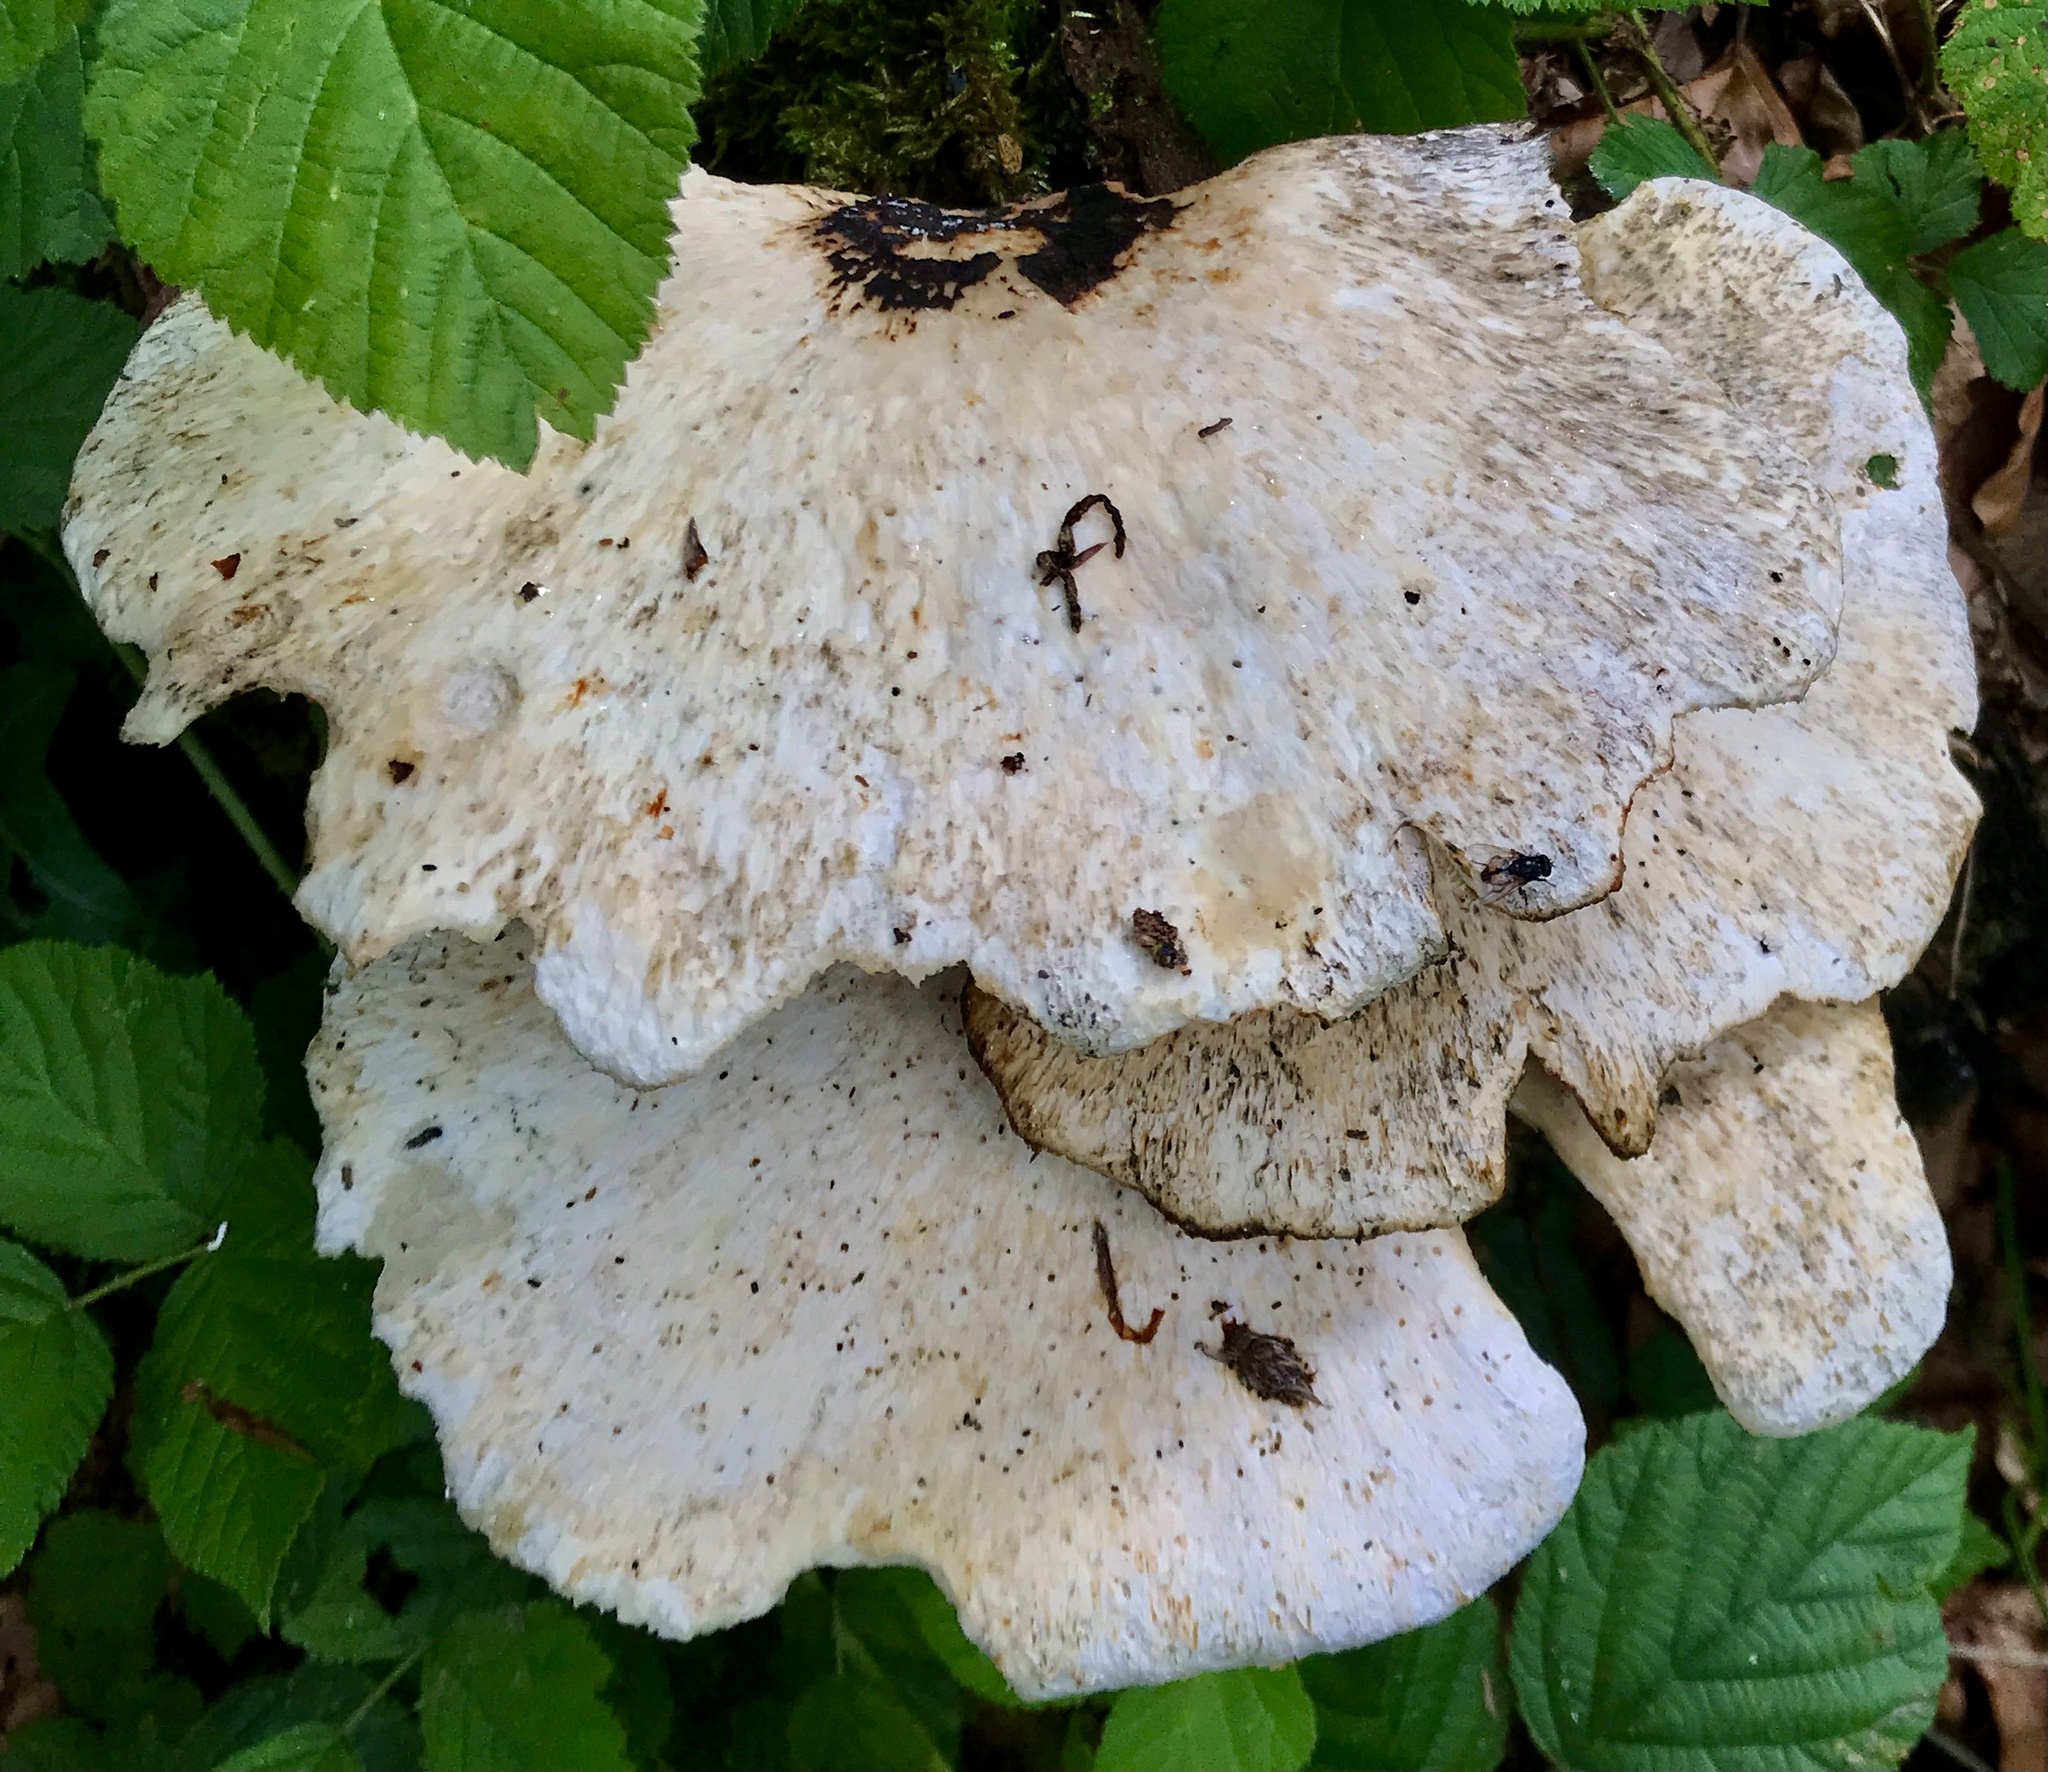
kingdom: Fungi
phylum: Basidiomycota
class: Agaricomycetes
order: Polyporales
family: Polyporaceae
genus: Cerioporus
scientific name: Cerioporus squamosus
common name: Dryad's saddle
